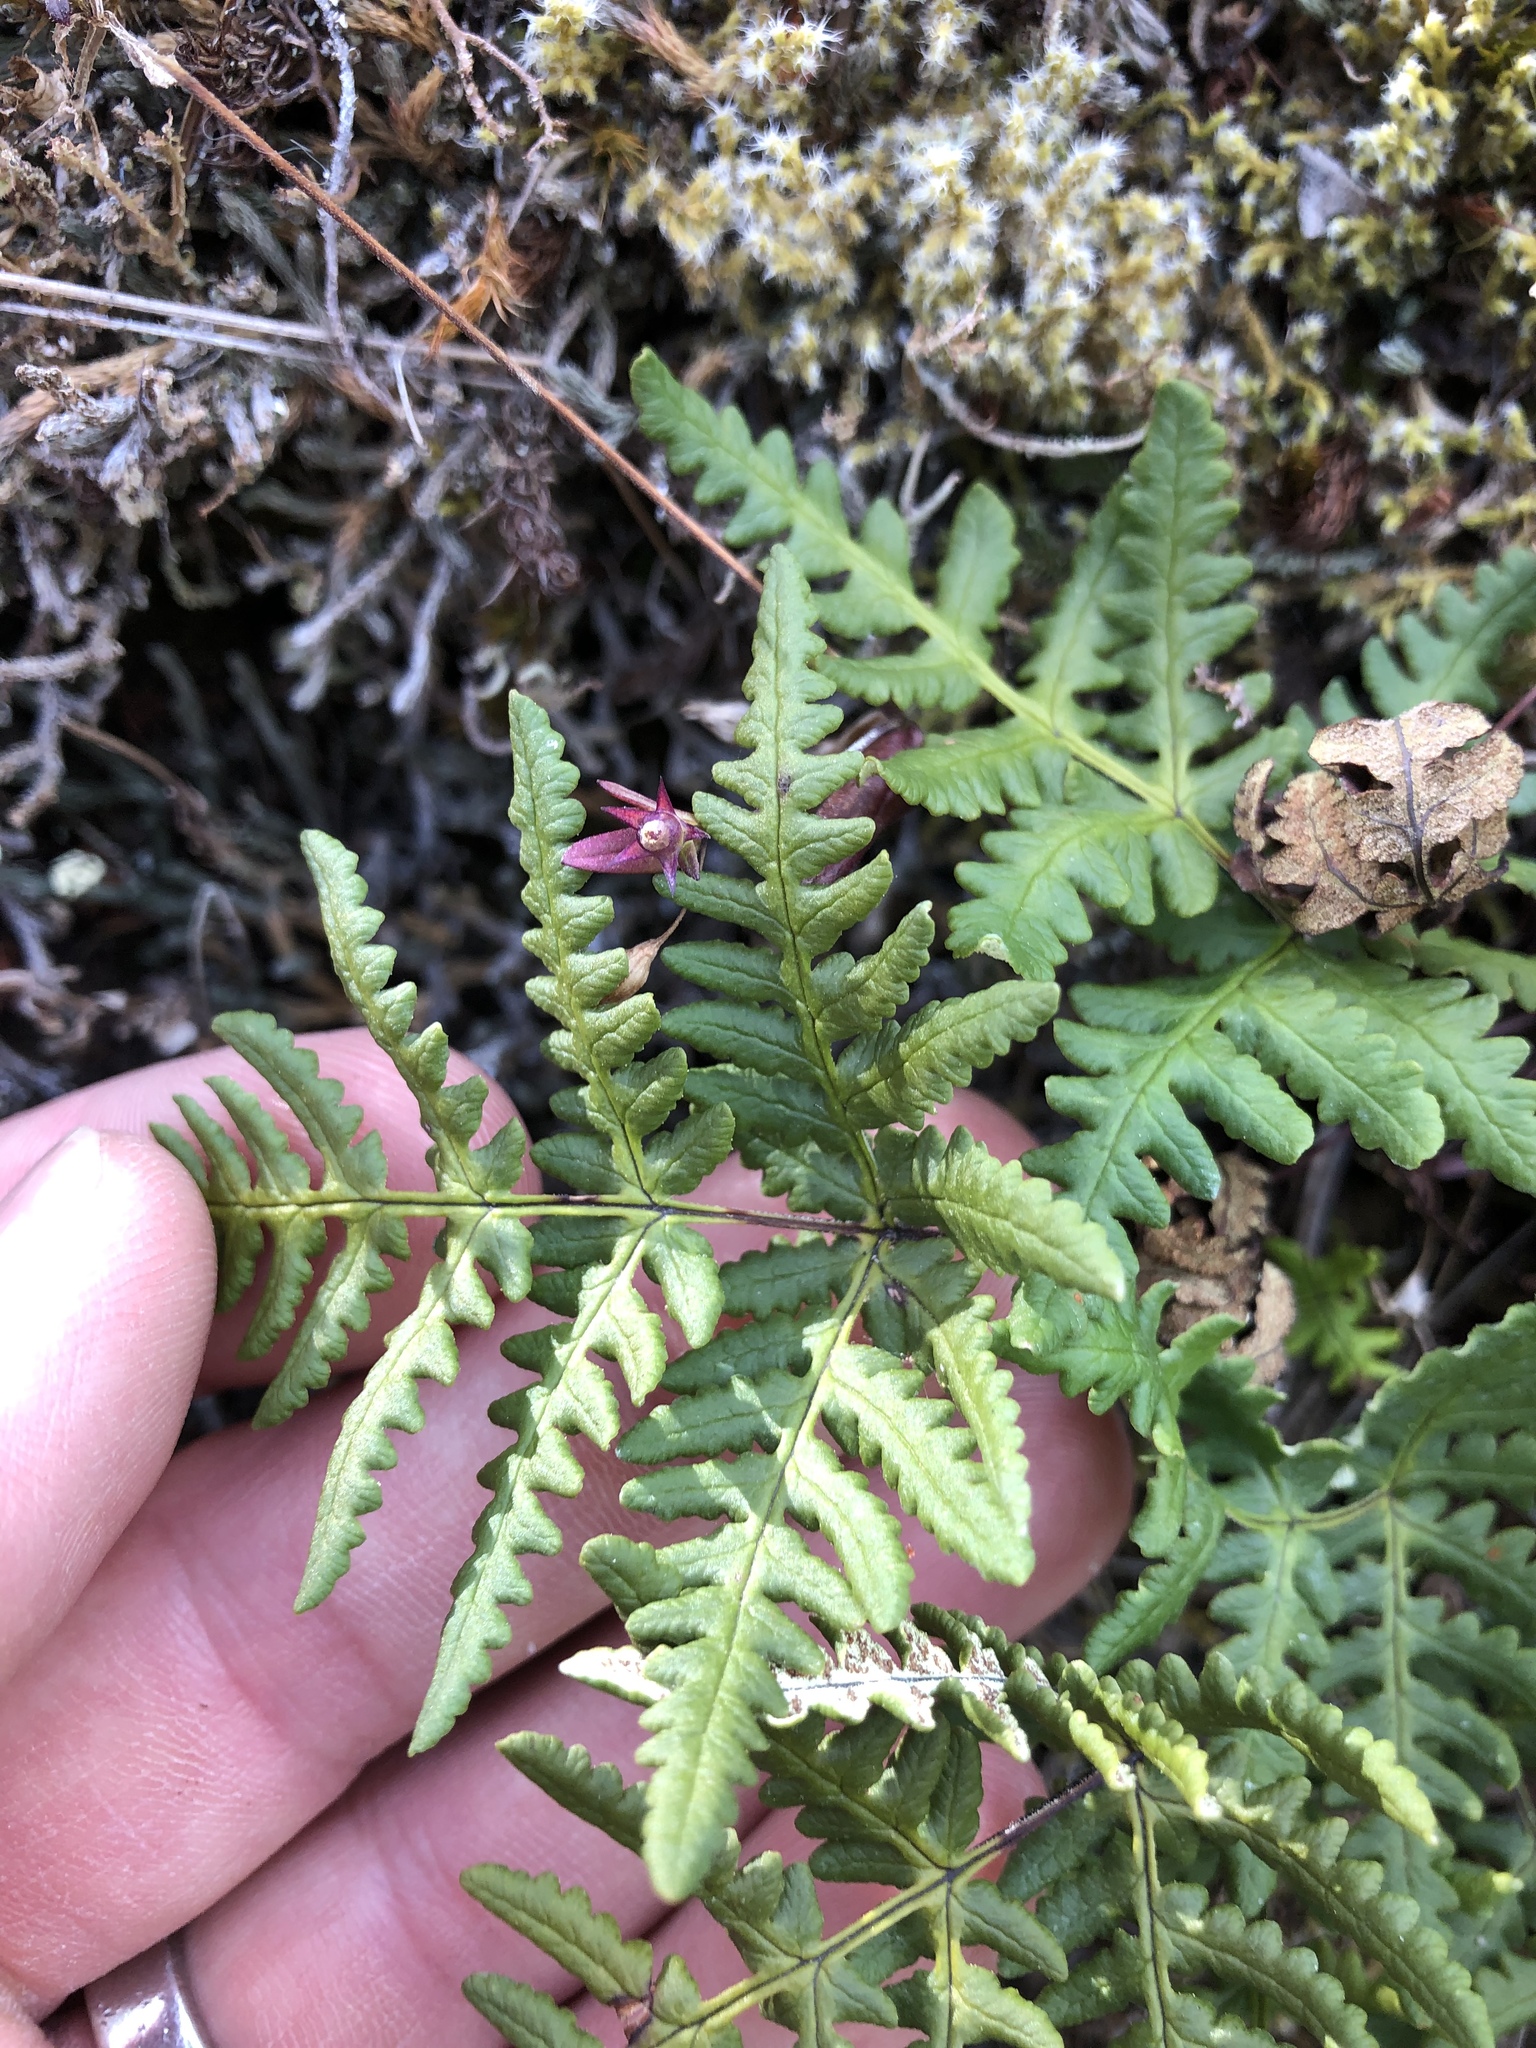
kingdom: Plantae
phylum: Tracheophyta
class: Polypodiopsida
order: Polypodiales
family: Pteridaceae
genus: Pentagramma
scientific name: Pentagramma triangularis
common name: Gold fern
